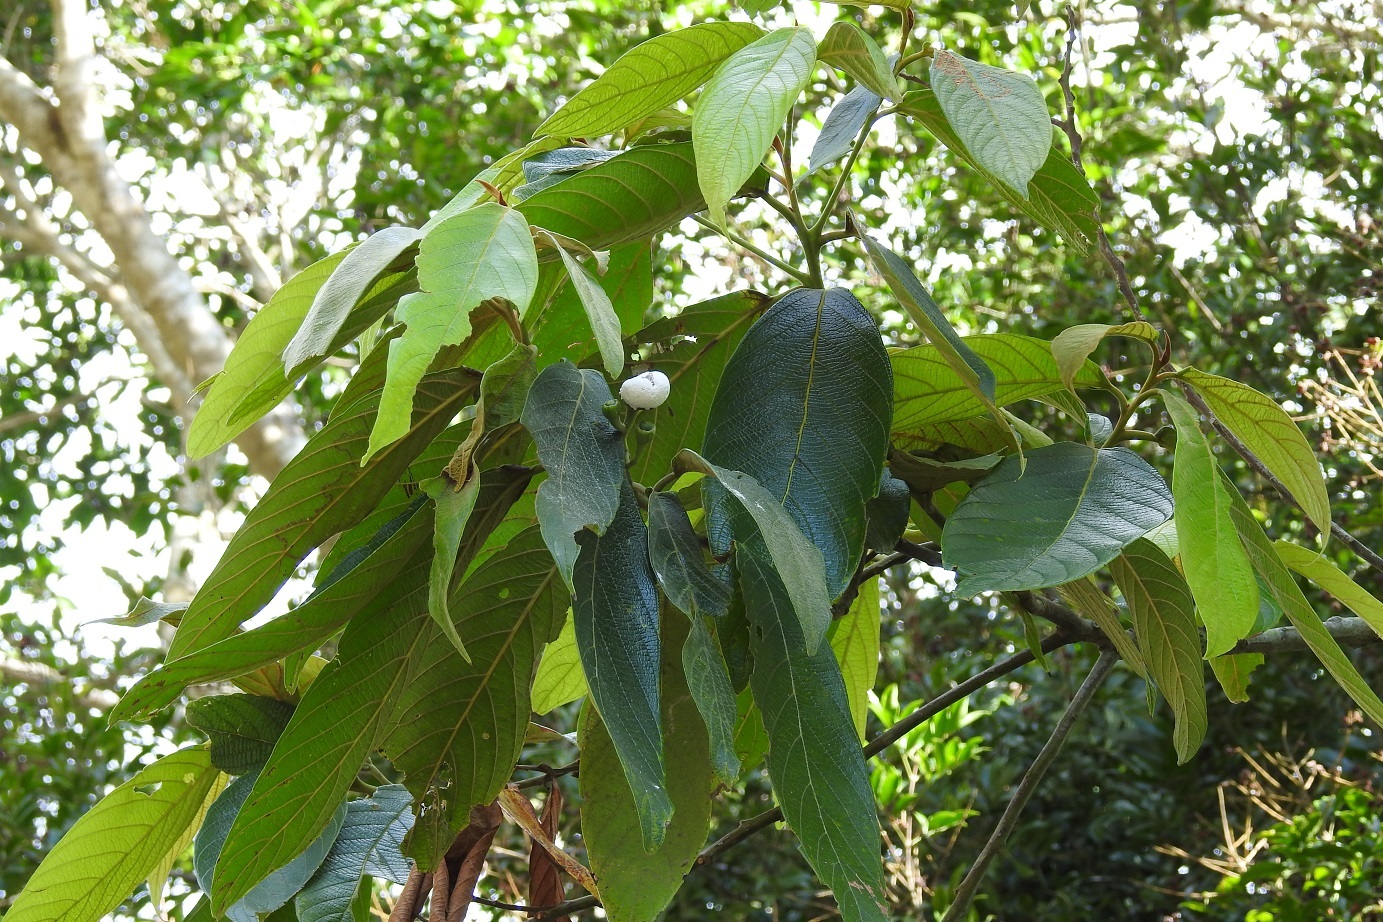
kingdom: Plantae
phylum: Tracheophyta
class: Magnoliopsida
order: Laurales
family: Lauraceae
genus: Nectandra
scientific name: Nectandra
